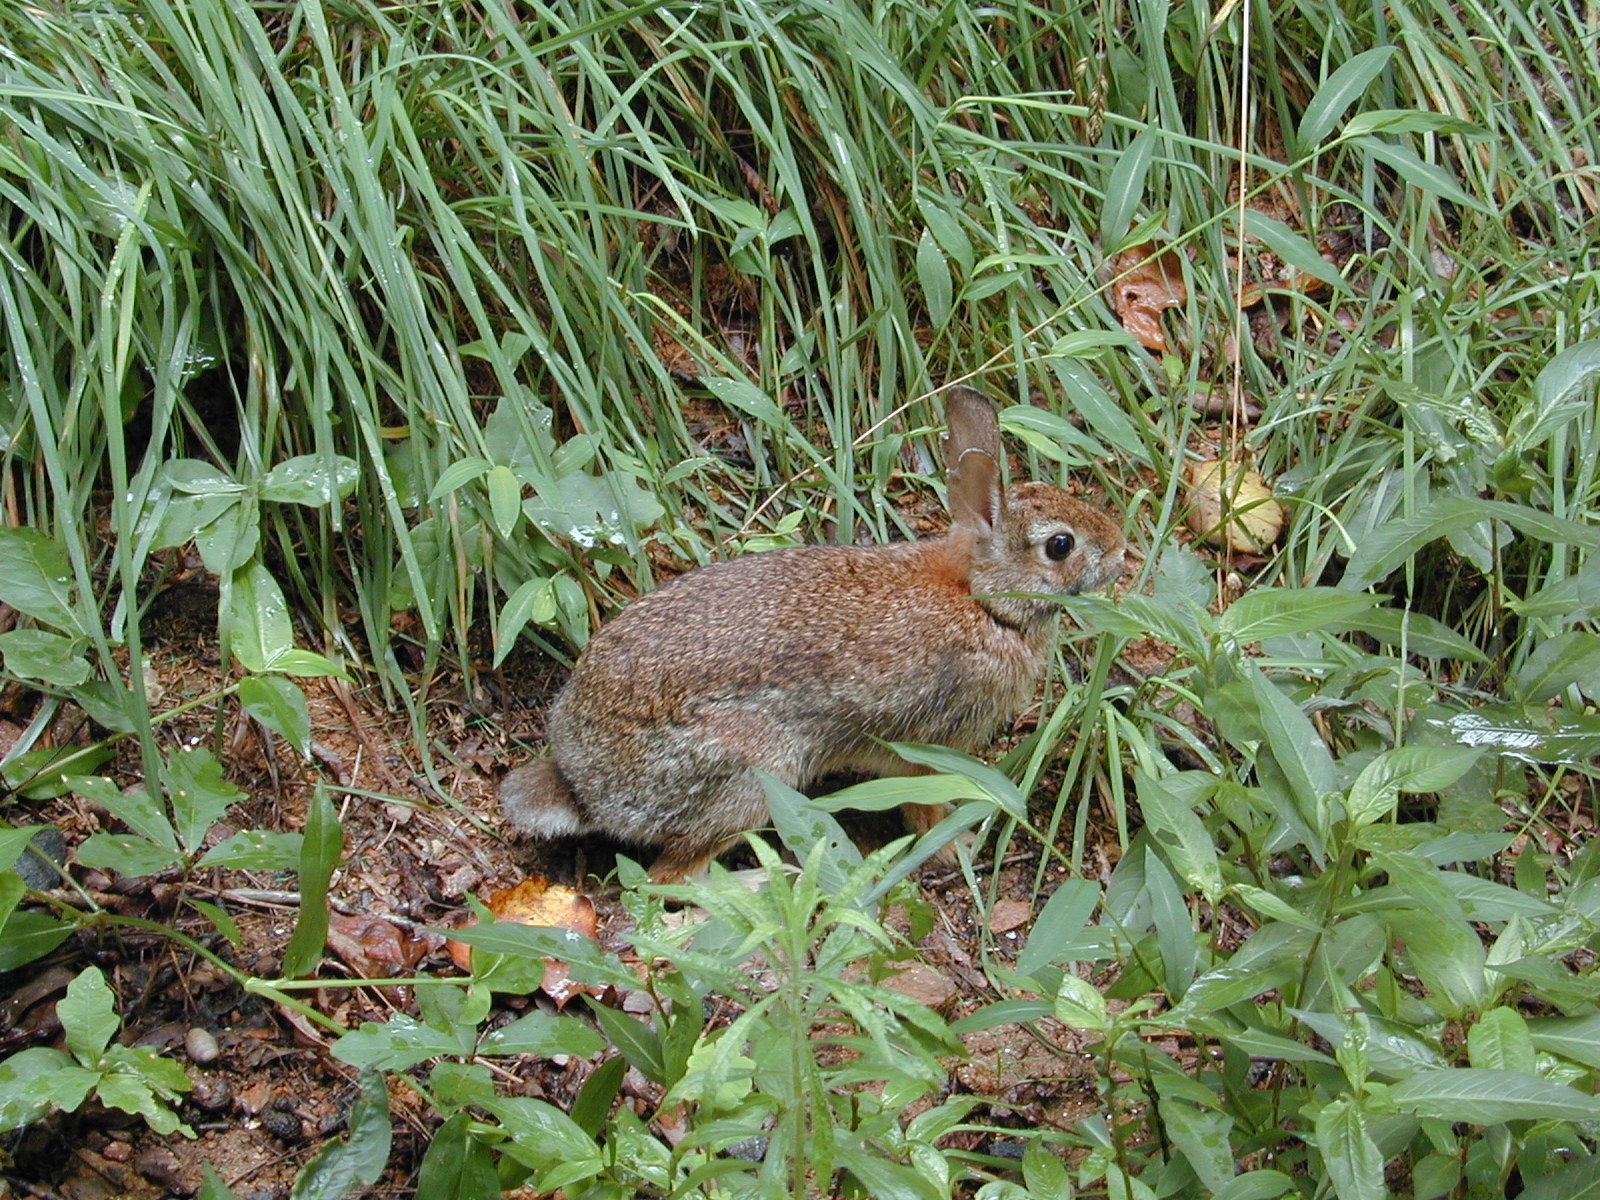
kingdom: Animalia
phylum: Chordata
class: Mammalia
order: Lagomorpha
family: Leporidae
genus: Sylvilagus
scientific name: Sylvilagus floridanus
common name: Eastern cottontail
